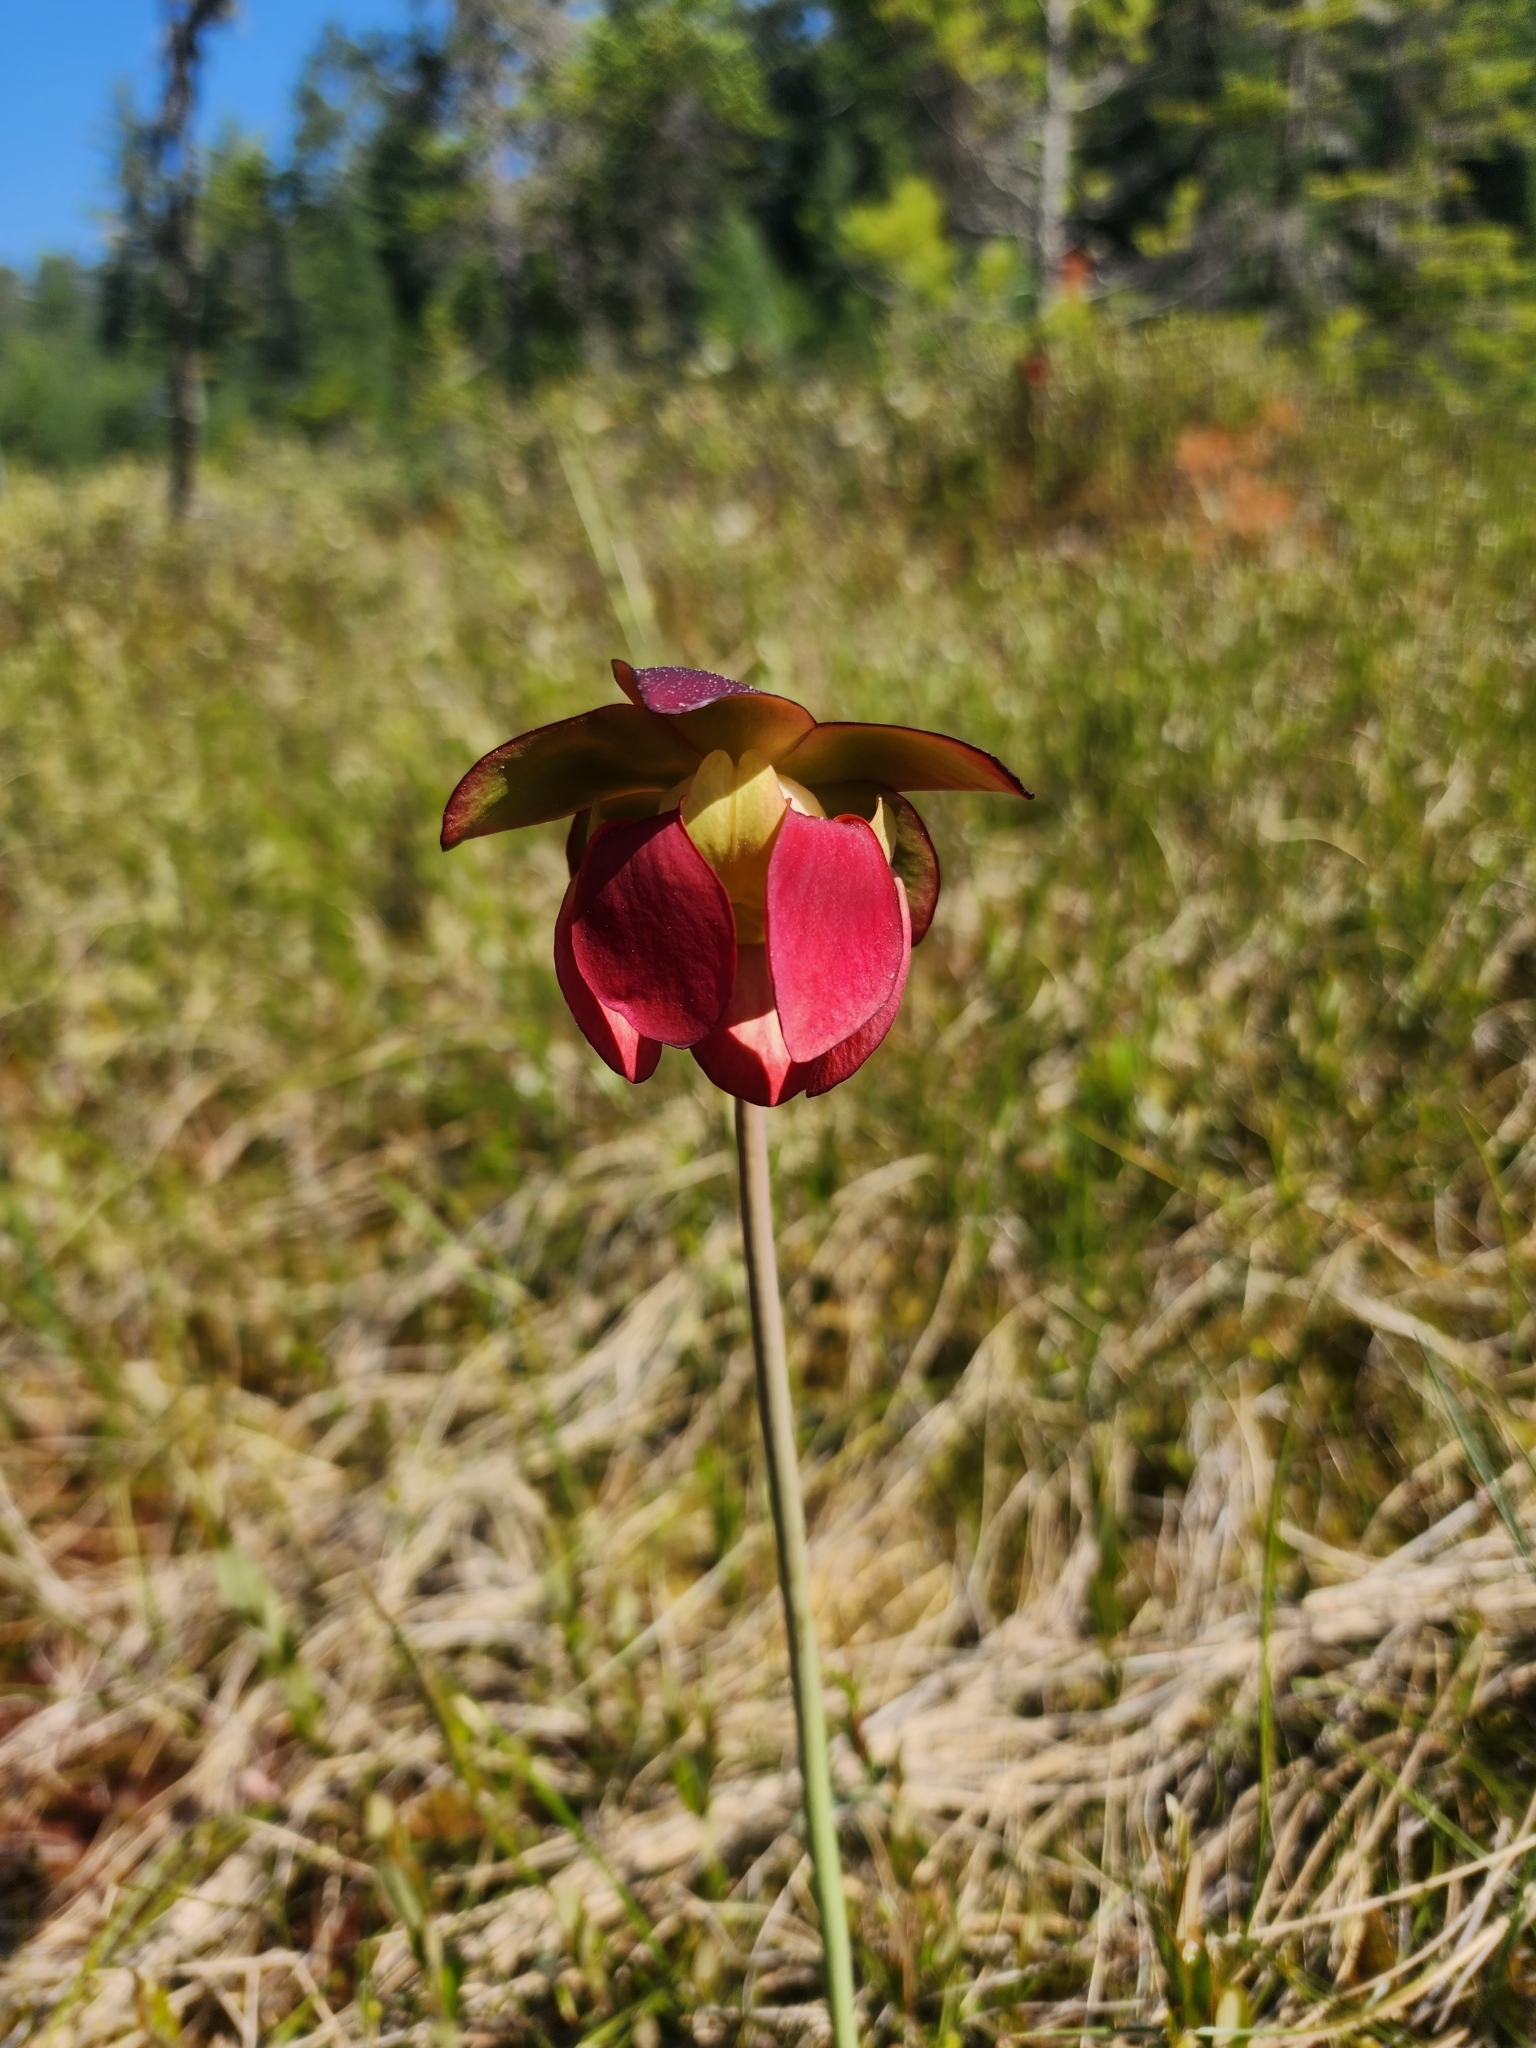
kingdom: Plantae
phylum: Tracheophyta
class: Magnoliopsida
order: Ericales
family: Sarraceniaceae
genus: Sarracenia
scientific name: Sarracenia purpurea
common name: Pitcherplant
